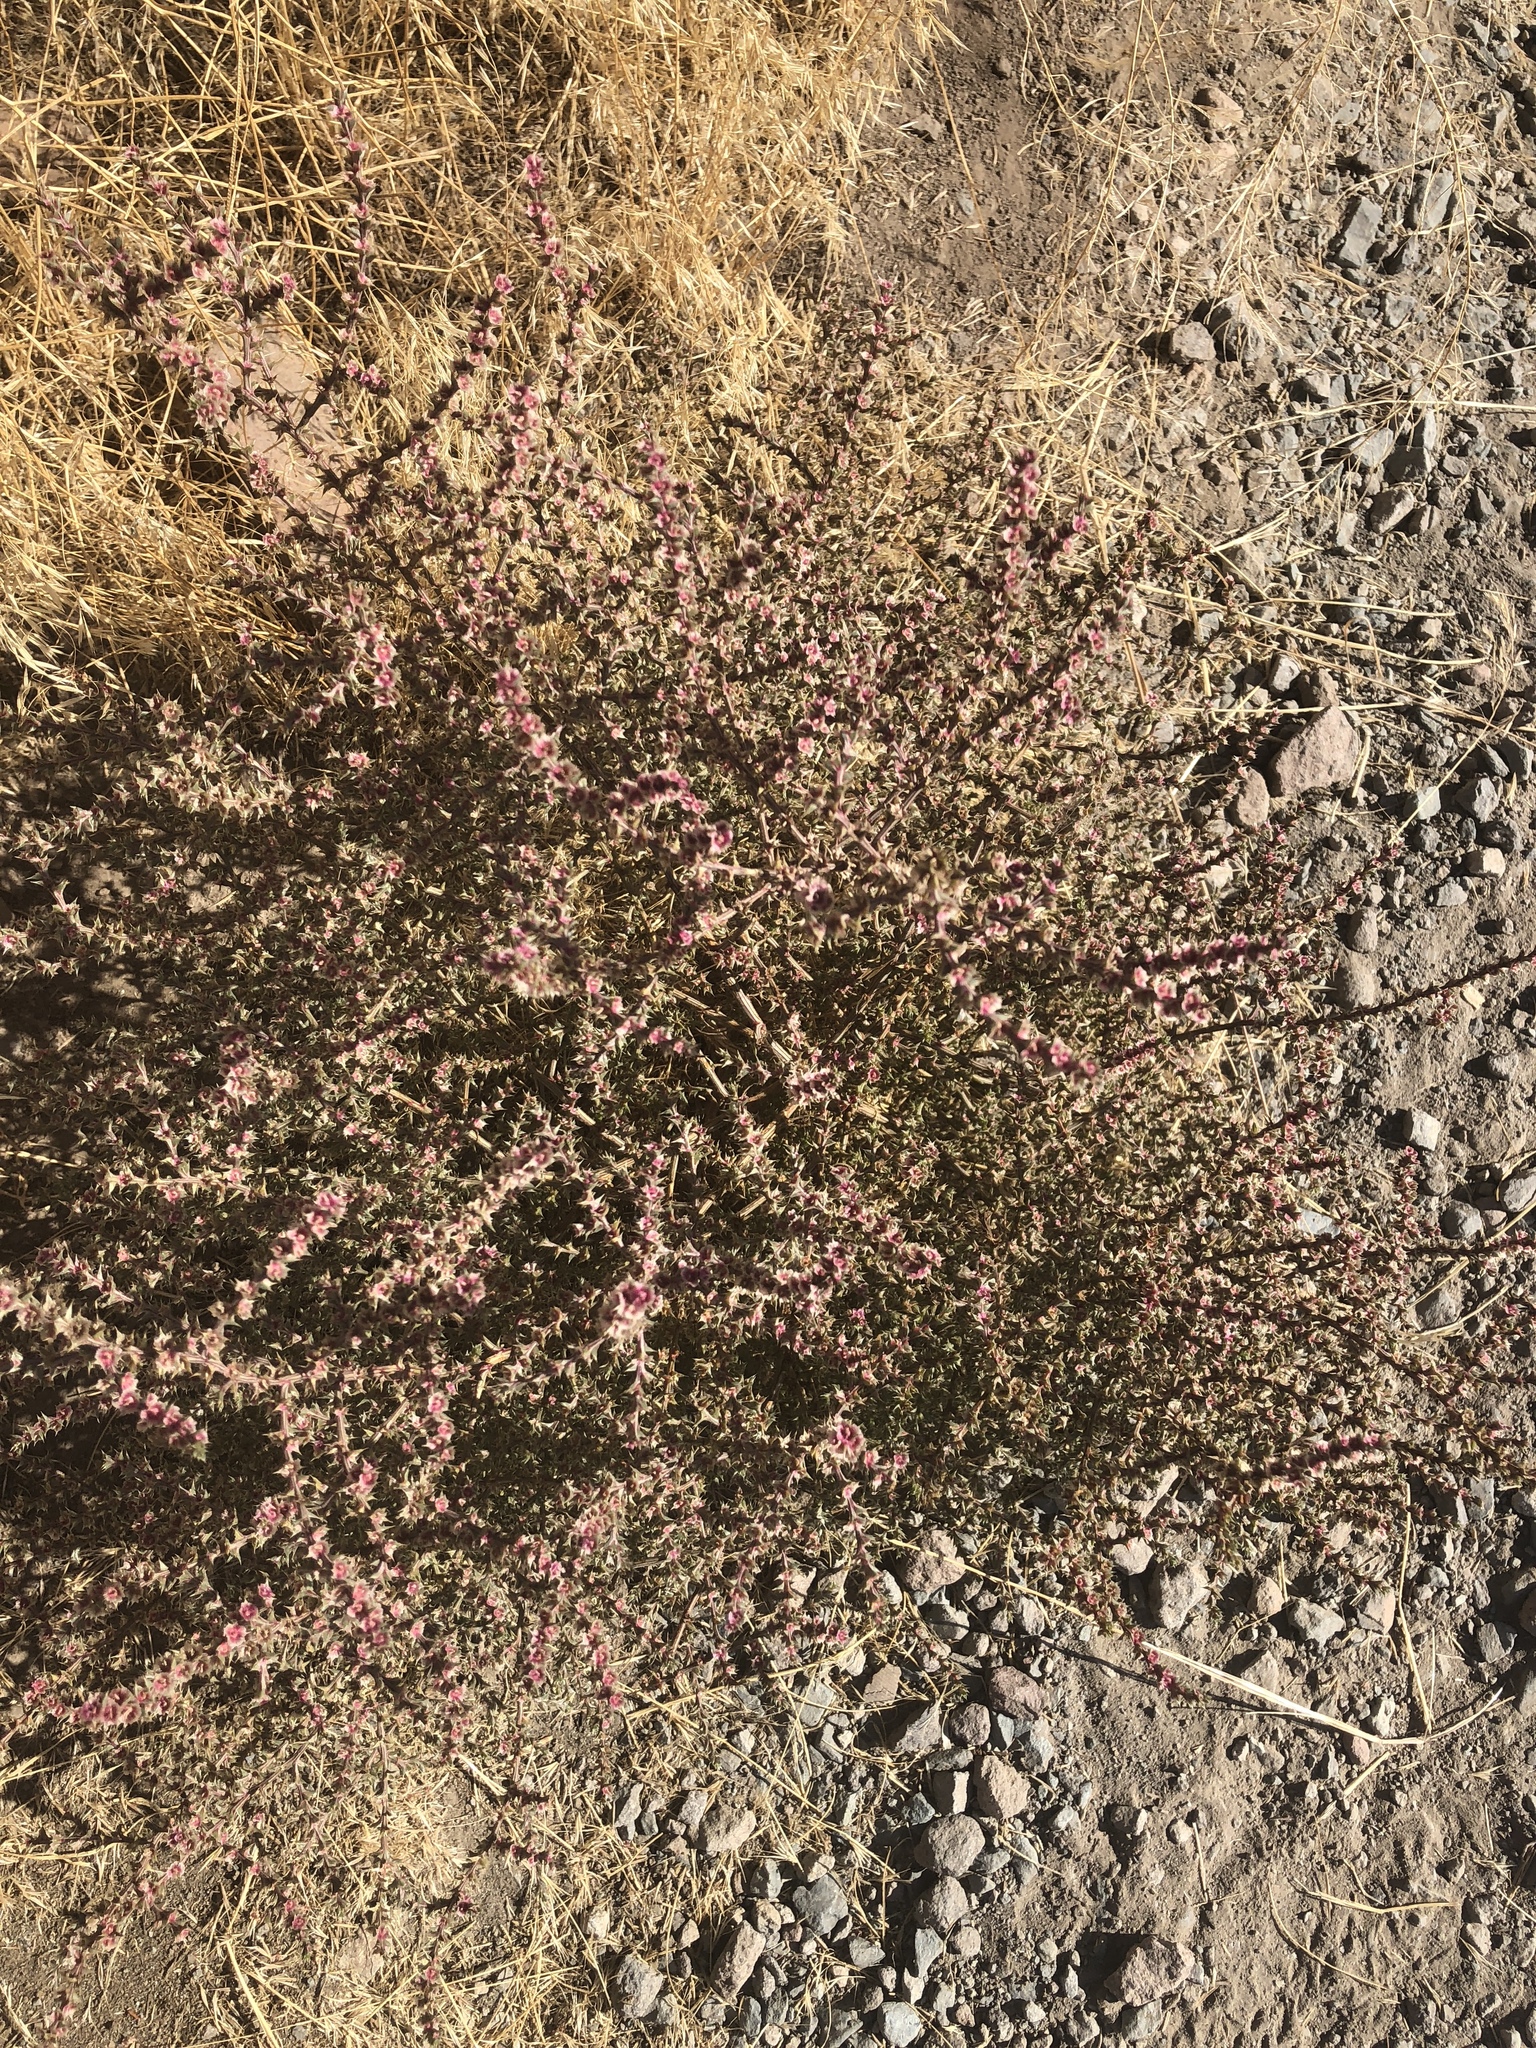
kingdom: Plantae
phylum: Tracheophyta
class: Magnoliopsida
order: Caryophyllales
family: Amaranthaceae
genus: Salsola
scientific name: Salsola tragus
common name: Prickly russian thistle
